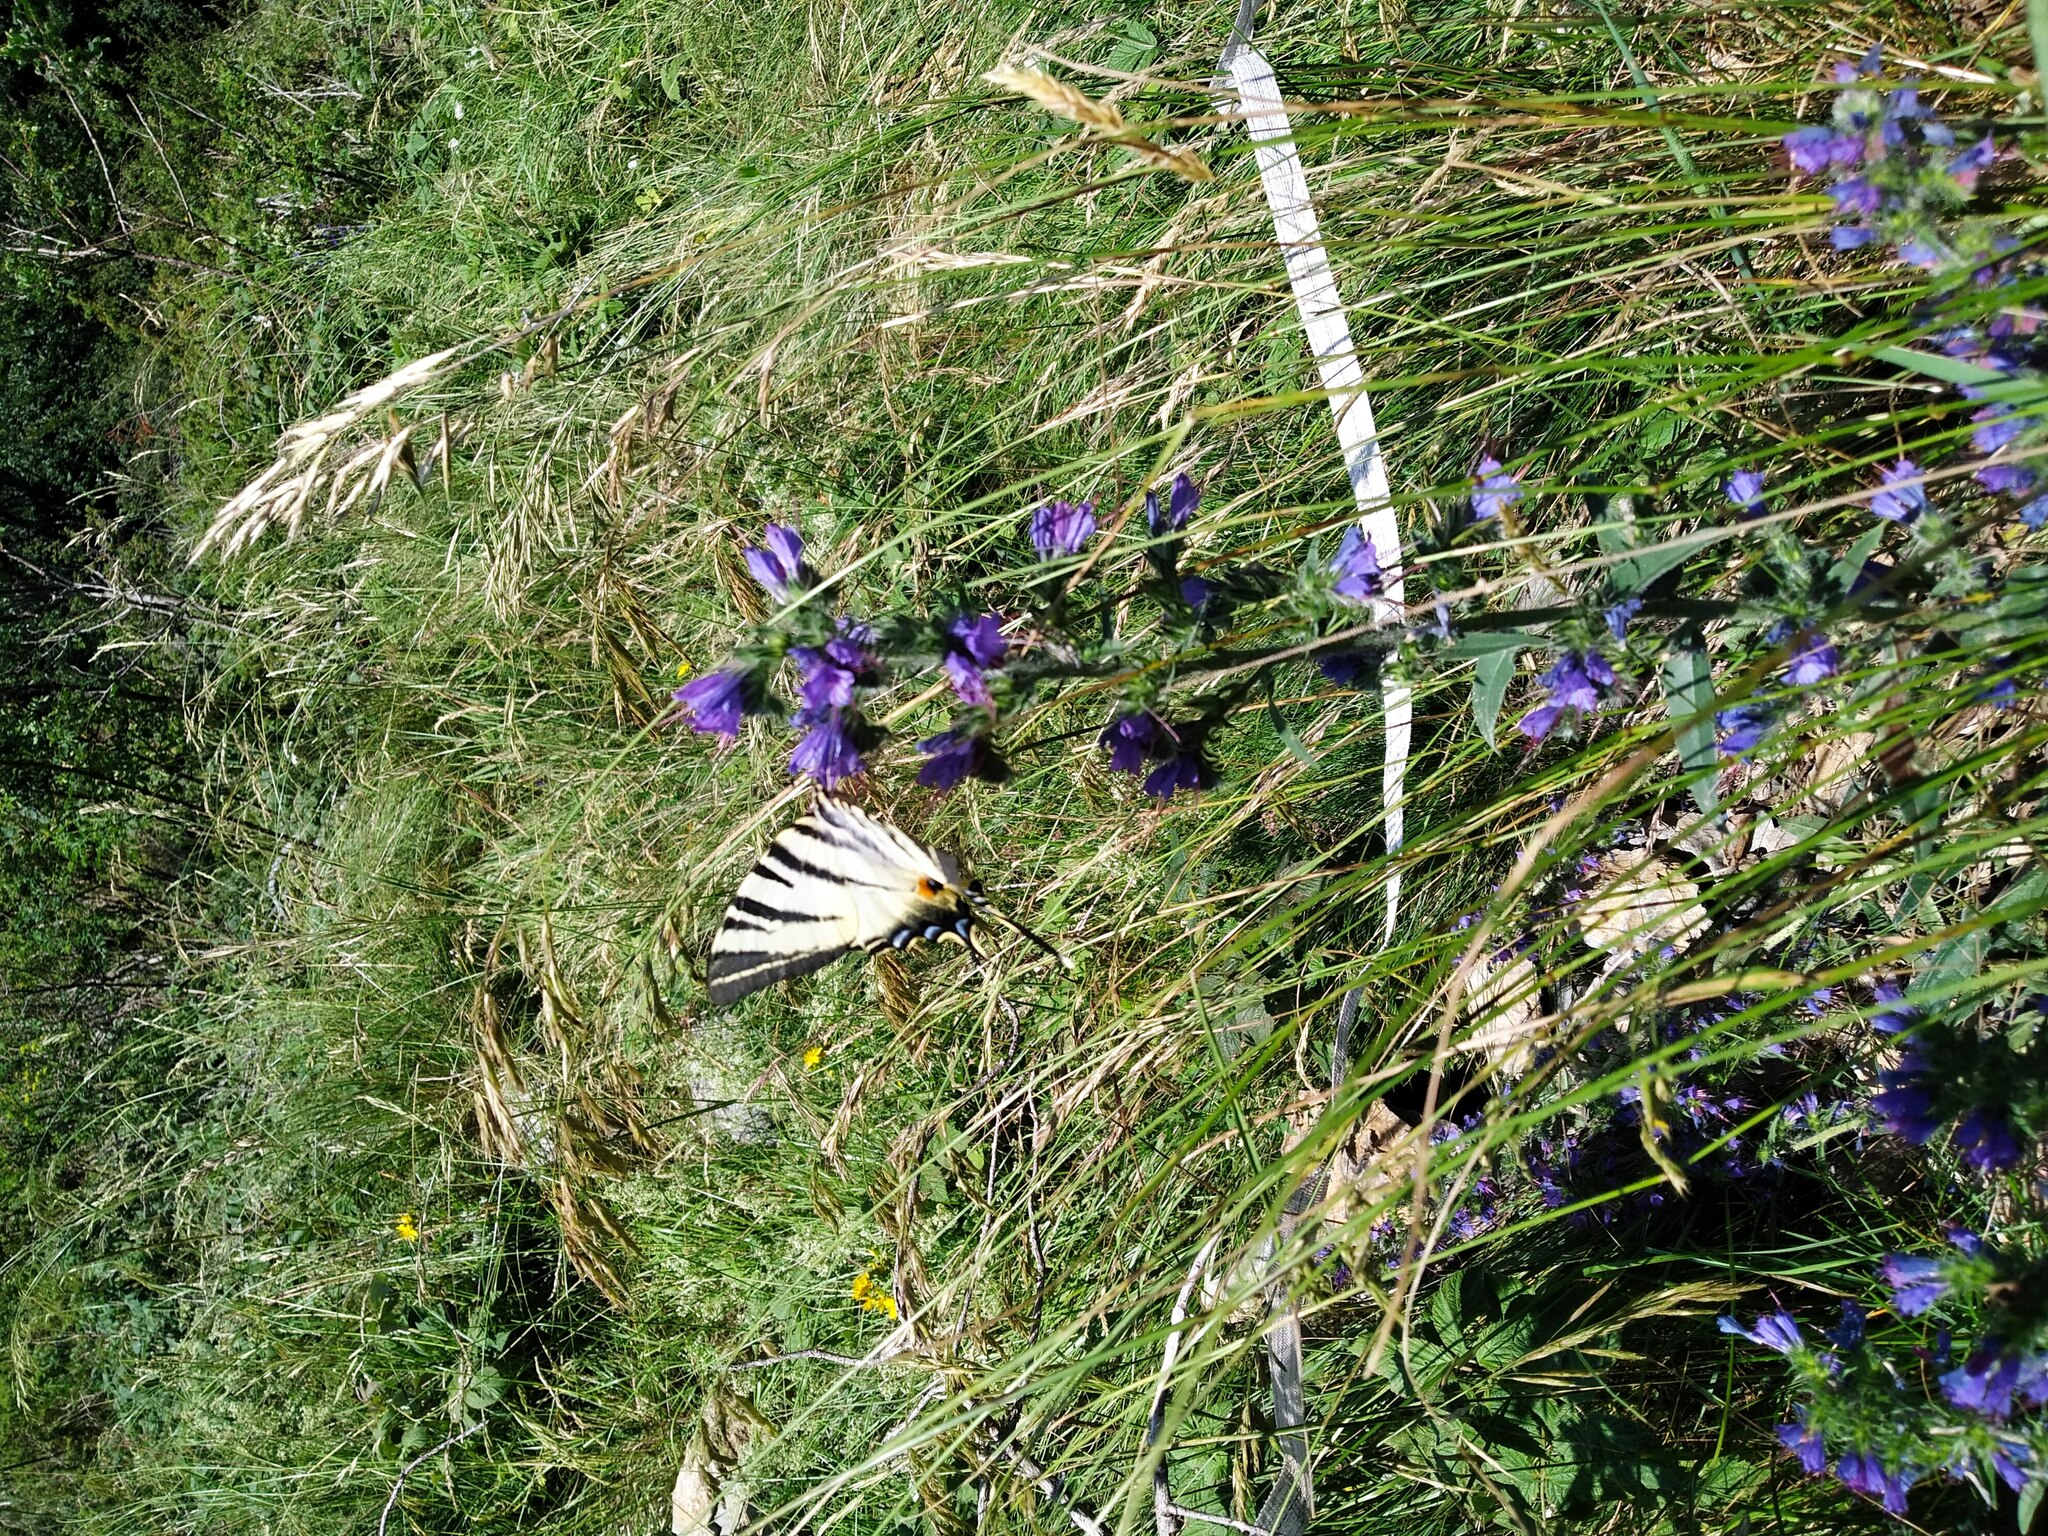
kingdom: Animalia
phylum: Arthropoda
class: Insecta
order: Lepidoptera
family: Papilionidae
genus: Iphiclides
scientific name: Iphiclides podalirius
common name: Scarce swallowtail
